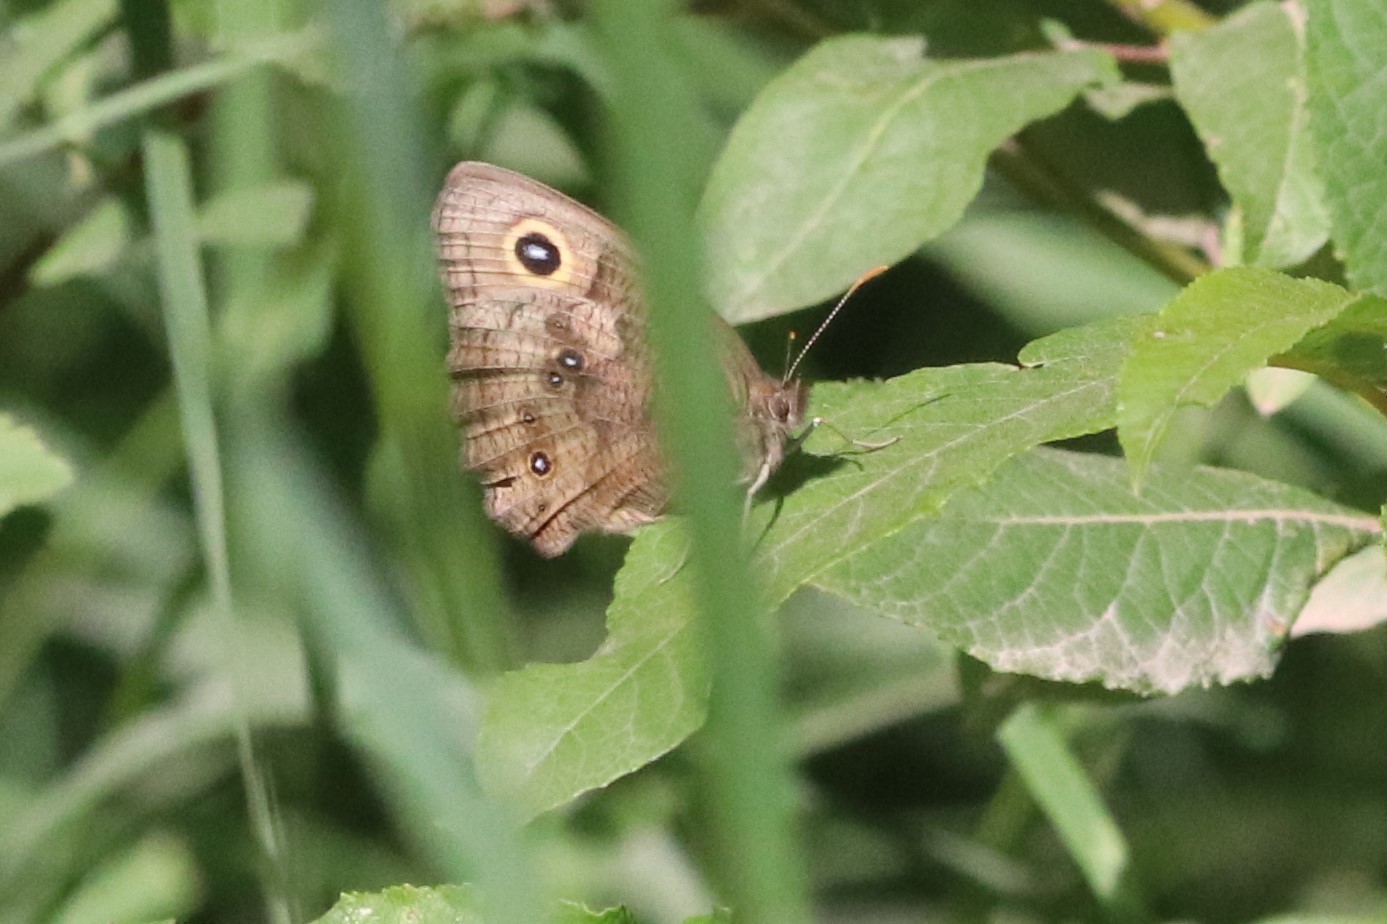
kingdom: Animalia
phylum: Arthropoda
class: Insecta
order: Lepidoptera
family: Nymphalidae
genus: Cercyonis
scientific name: Cercyonis pegala
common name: Common wood-nymph
